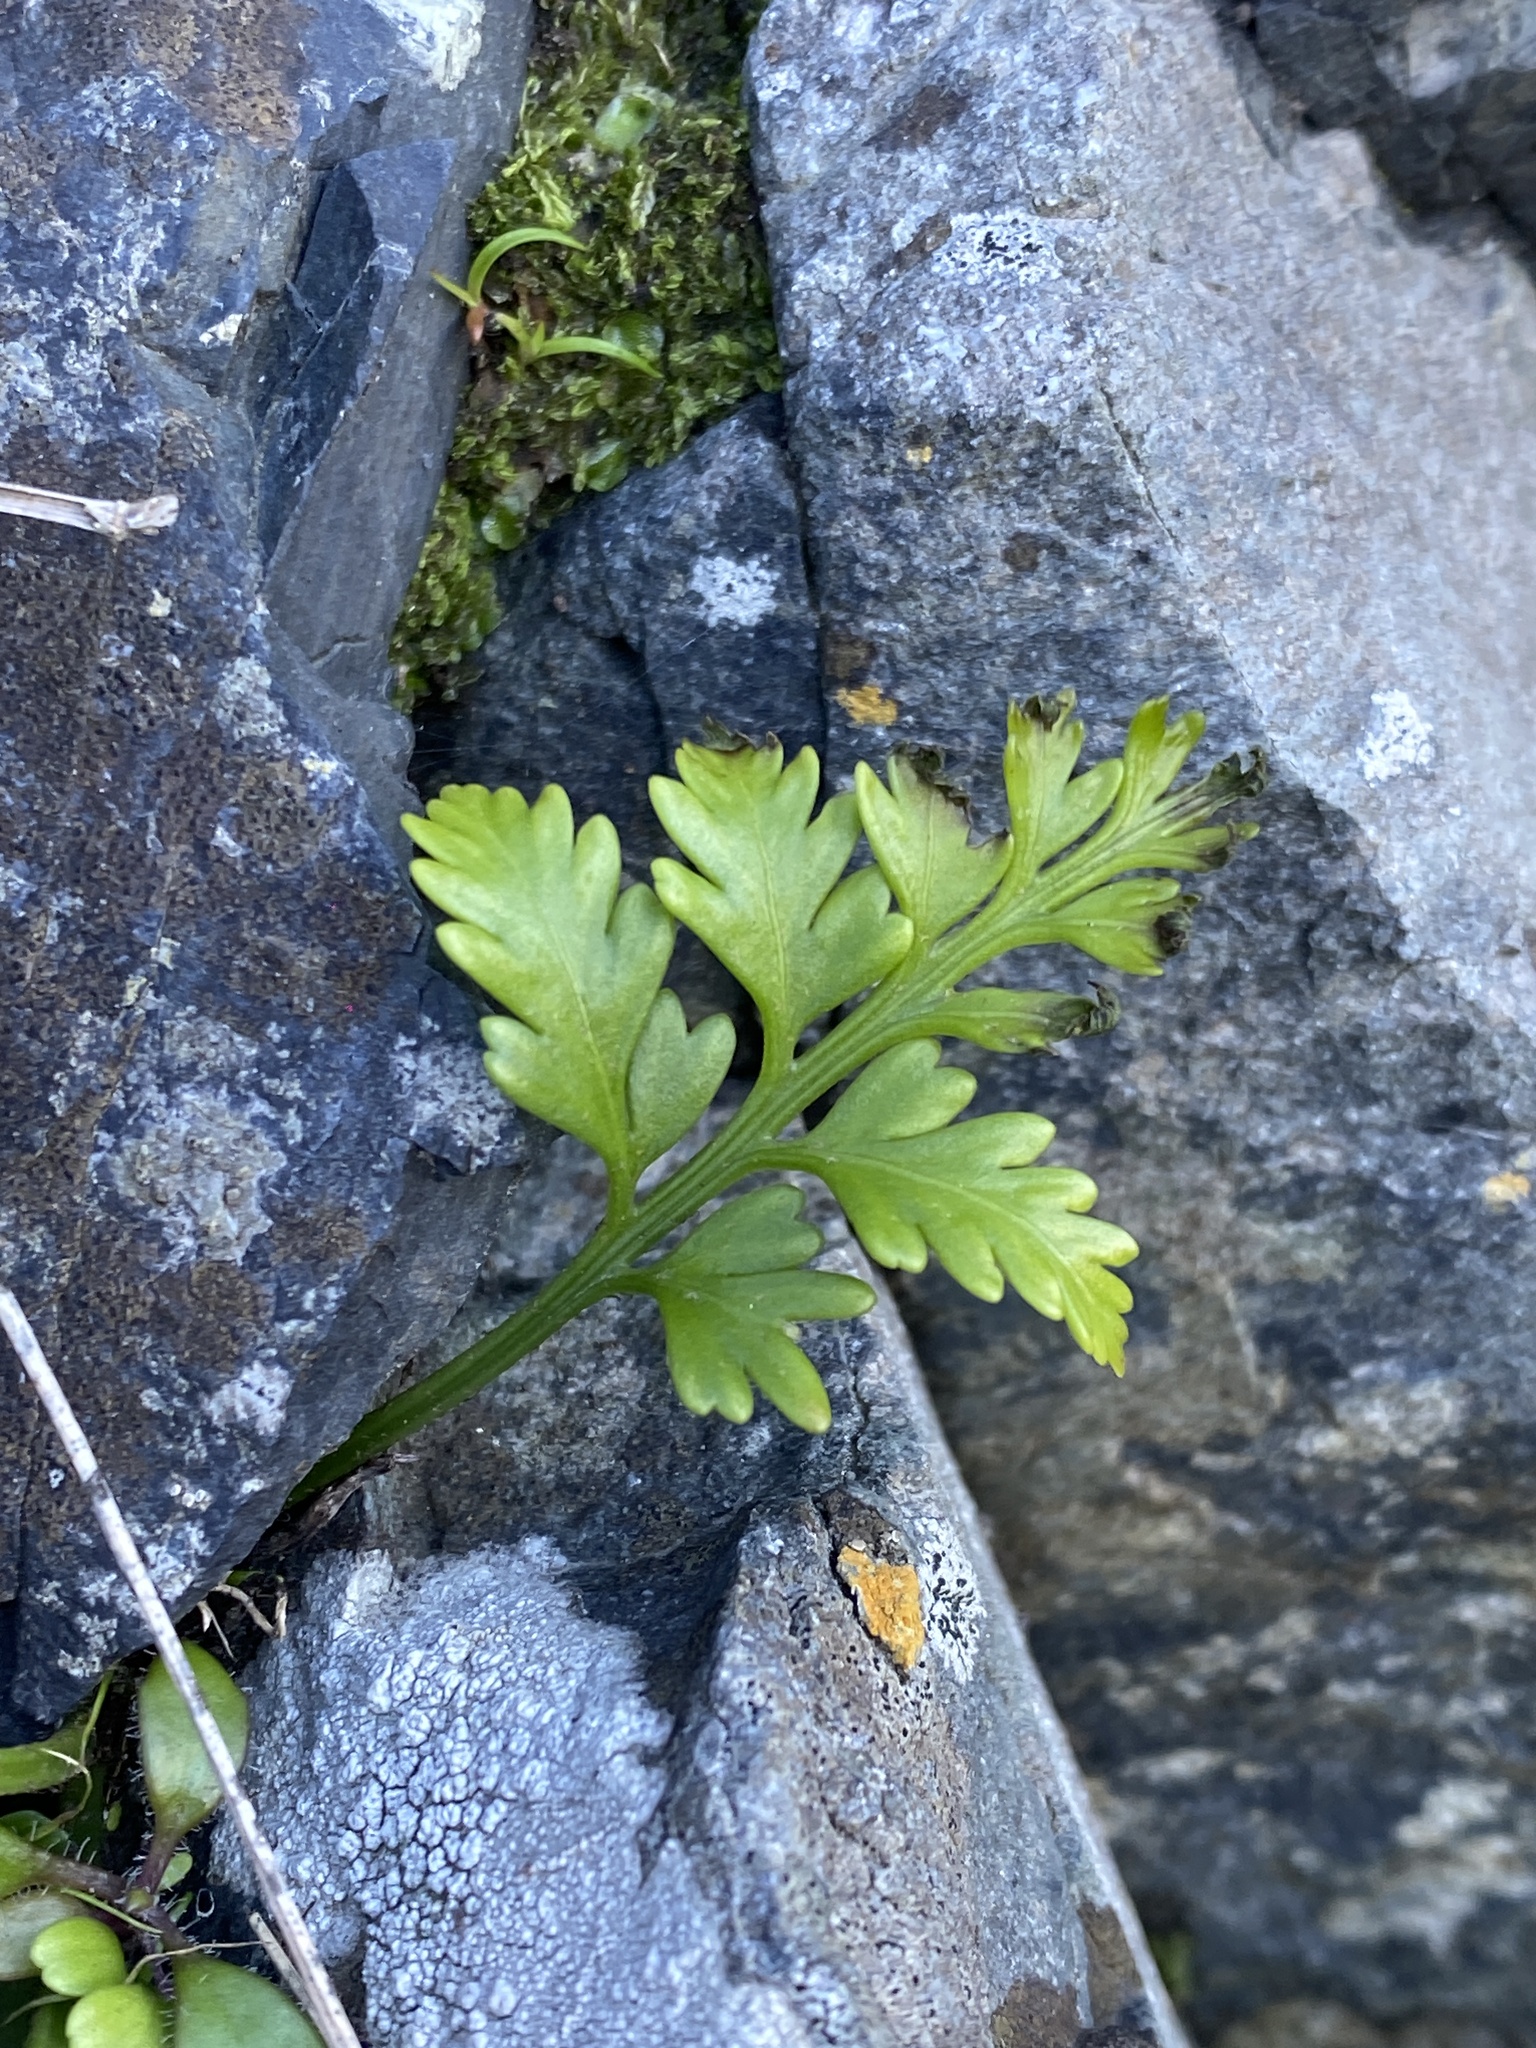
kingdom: Plantae
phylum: Tracheophyta
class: Polypodiopsida
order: Polypodiales
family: Aspleniaceae
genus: Asplenium
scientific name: Asplenium appendiculatum
